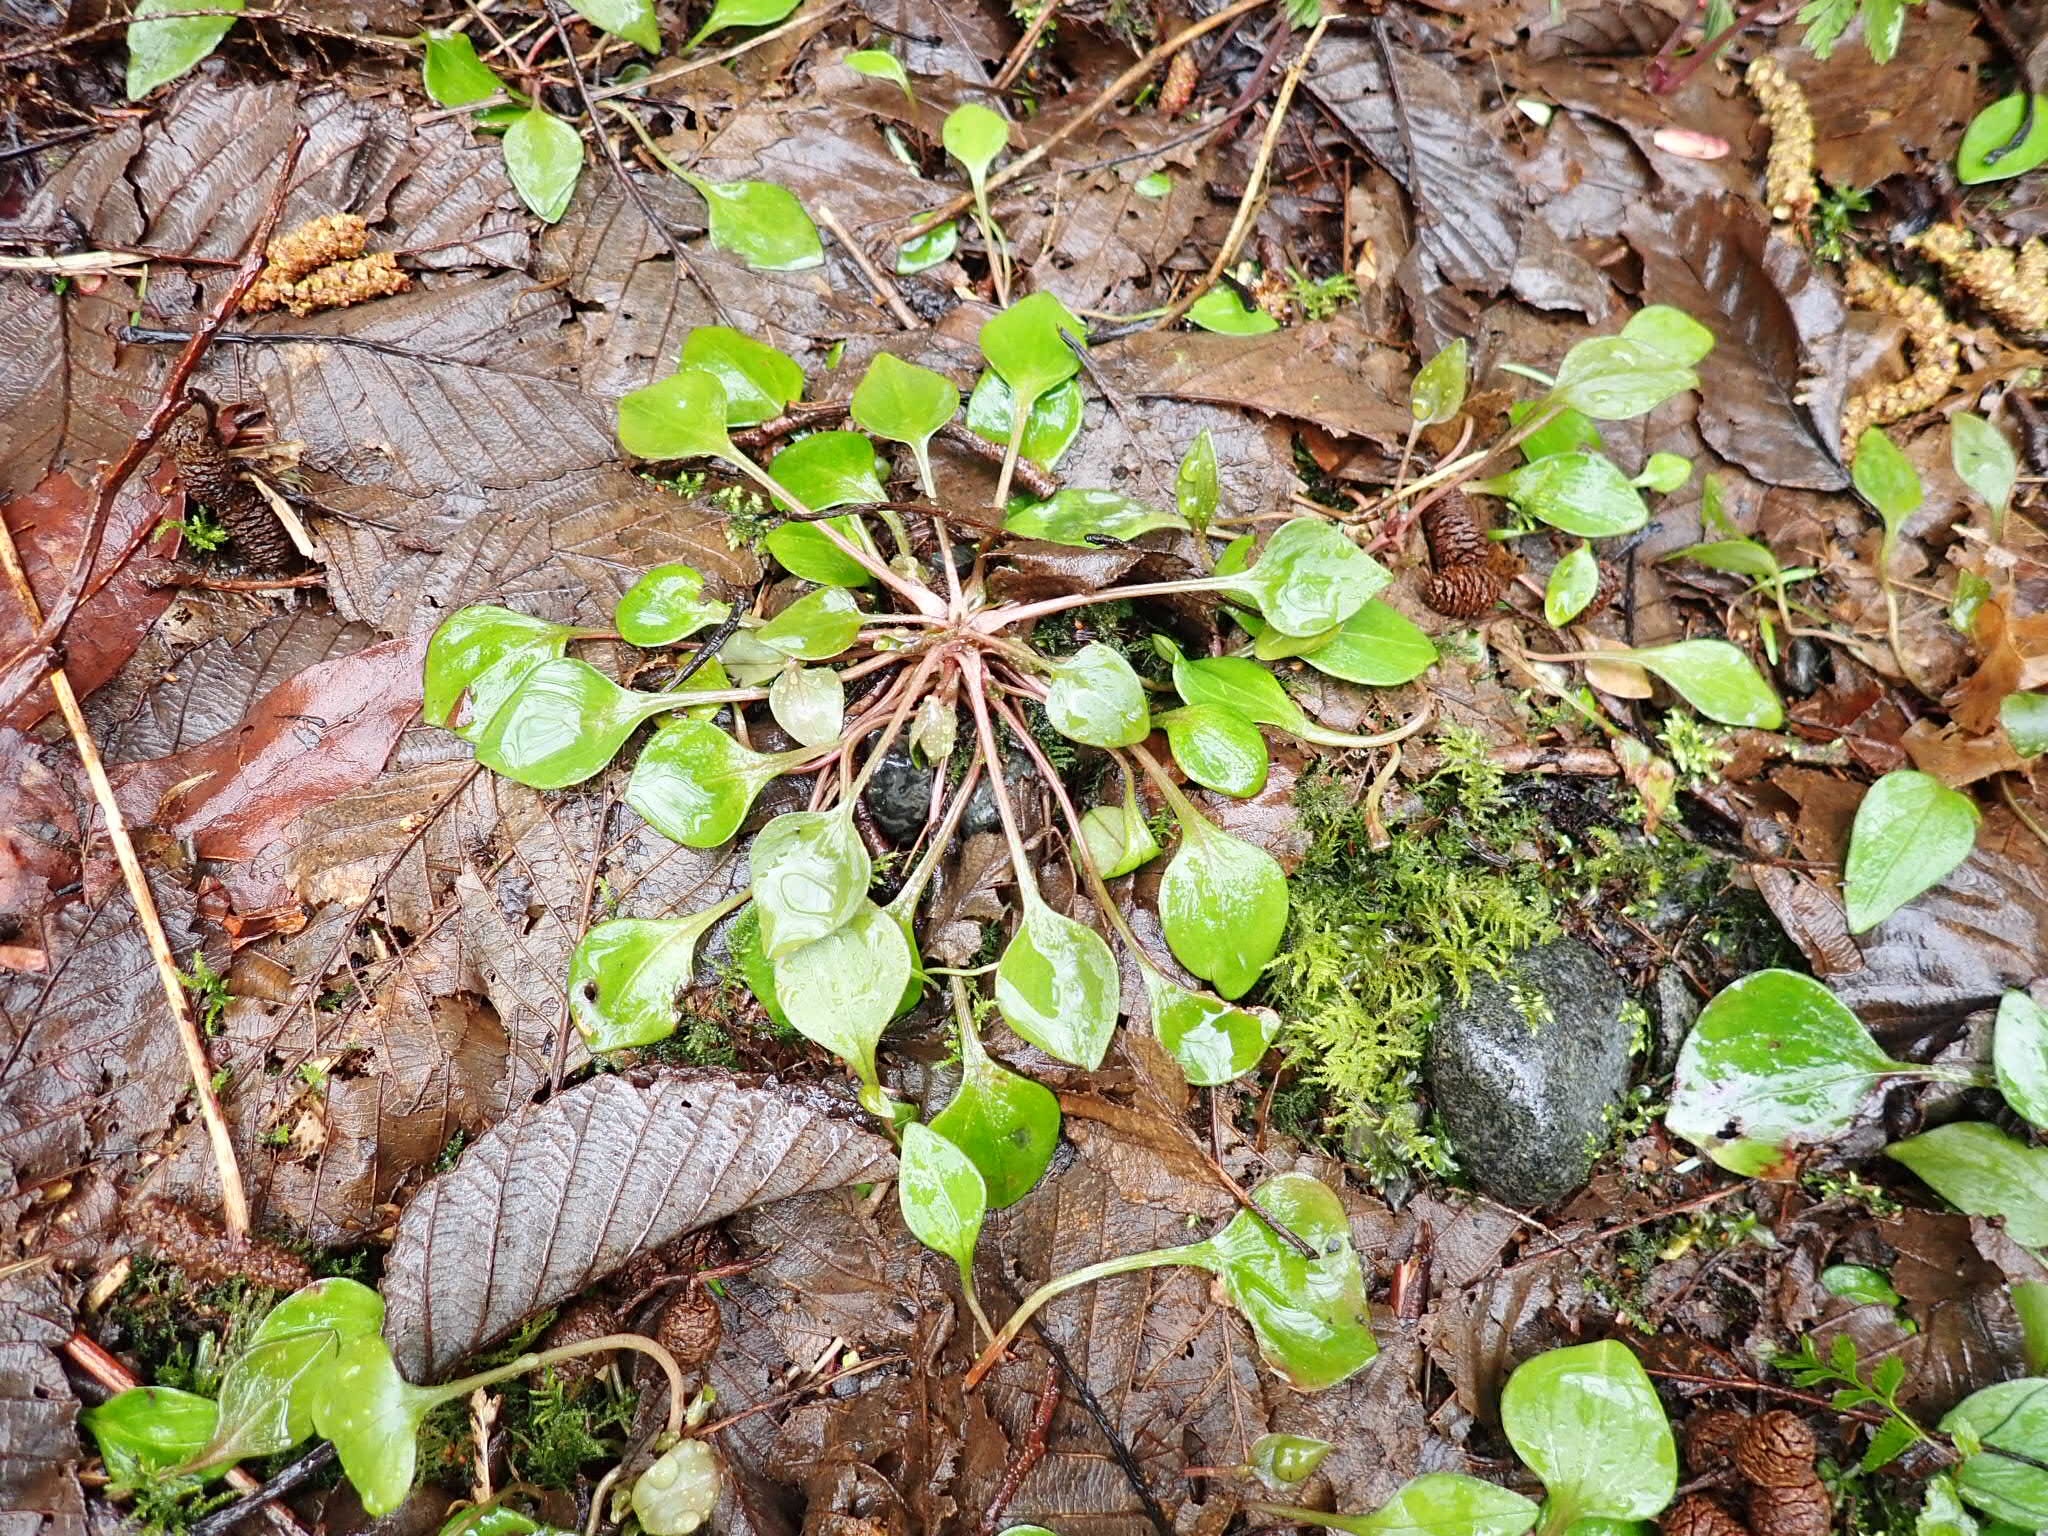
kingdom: Plantae
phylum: Tracheophyta
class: Magnoliopsida
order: Caryophyllales
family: Montiaceae
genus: Claytonia
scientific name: Claytonia sibirica
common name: Pink purslane
